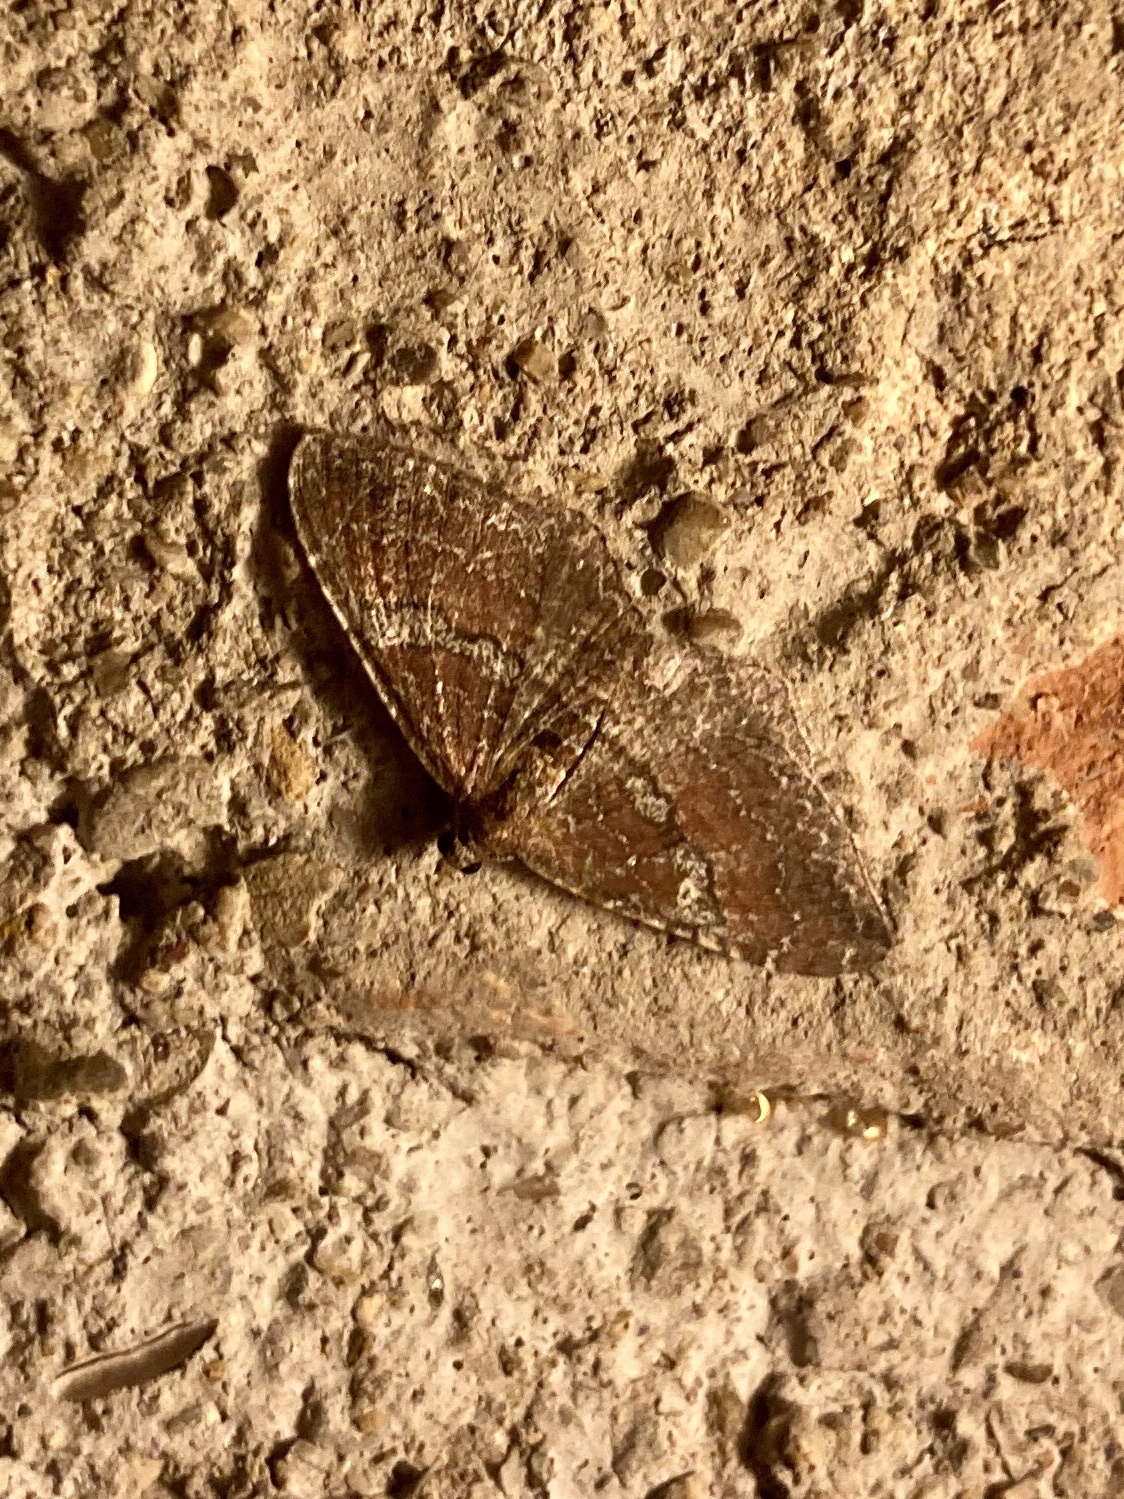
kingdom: Animalia
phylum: Arthropoda
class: Insecta
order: Lepidoptera
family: Geometridae
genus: Orthonama
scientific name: Orthonama obstipata
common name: The gem
